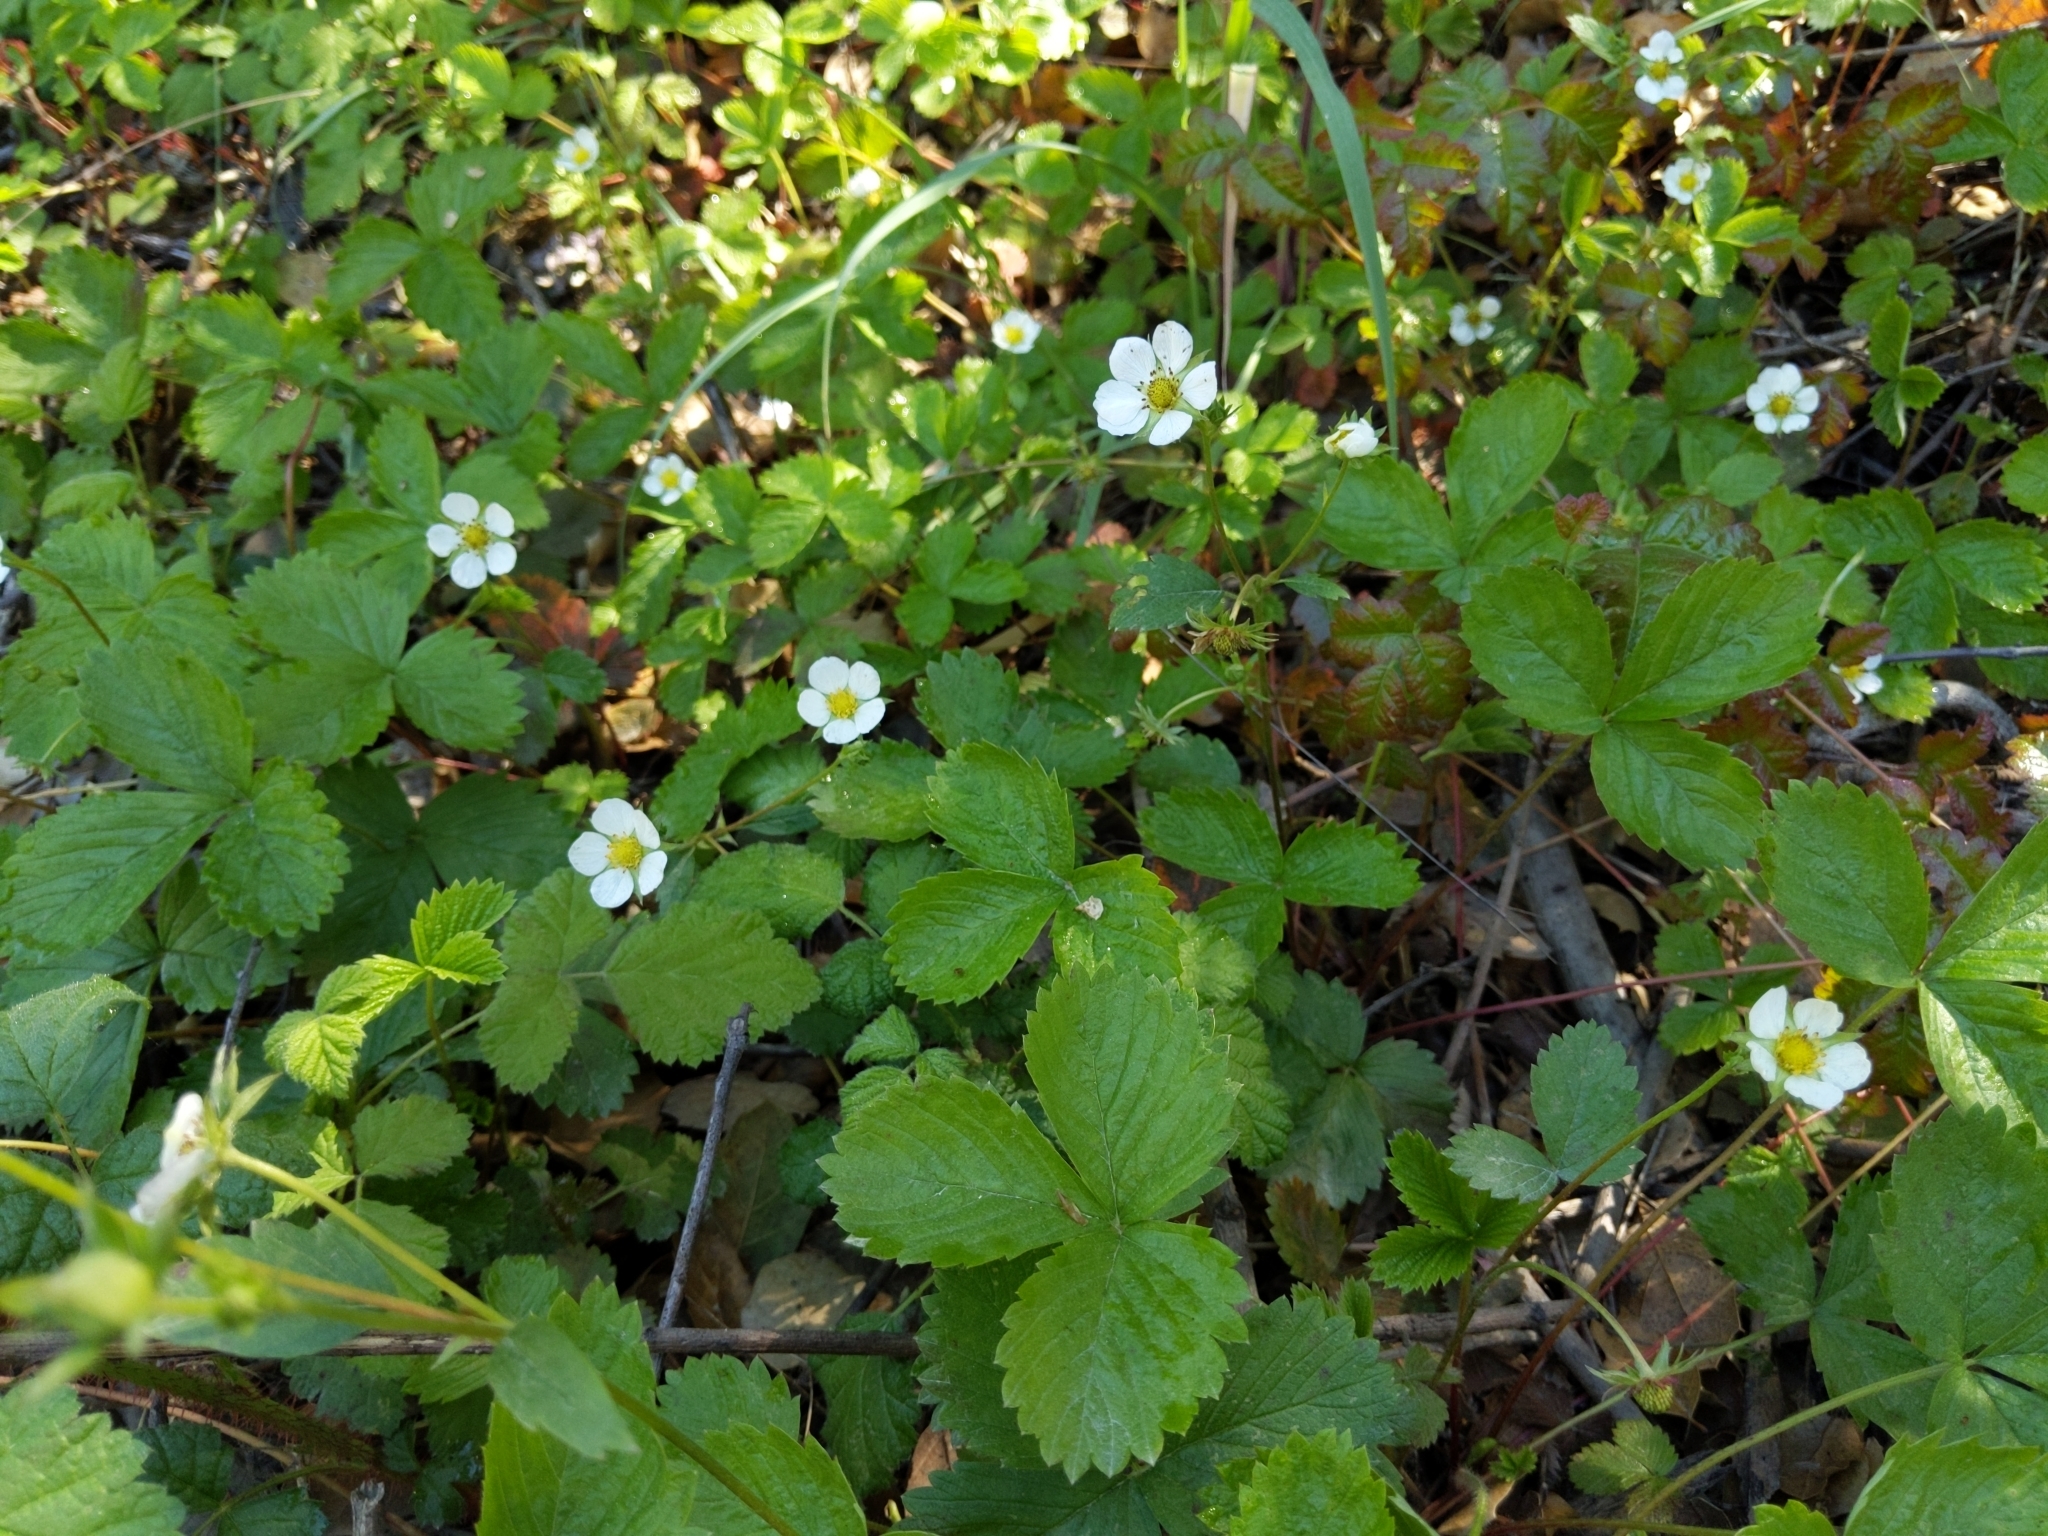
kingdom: Plantae
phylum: Tracheophyta
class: Magnoliopsida
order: Rosales
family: Rosaceae
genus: Fragaria
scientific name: Fragaria vesca
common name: Wild strawberry
